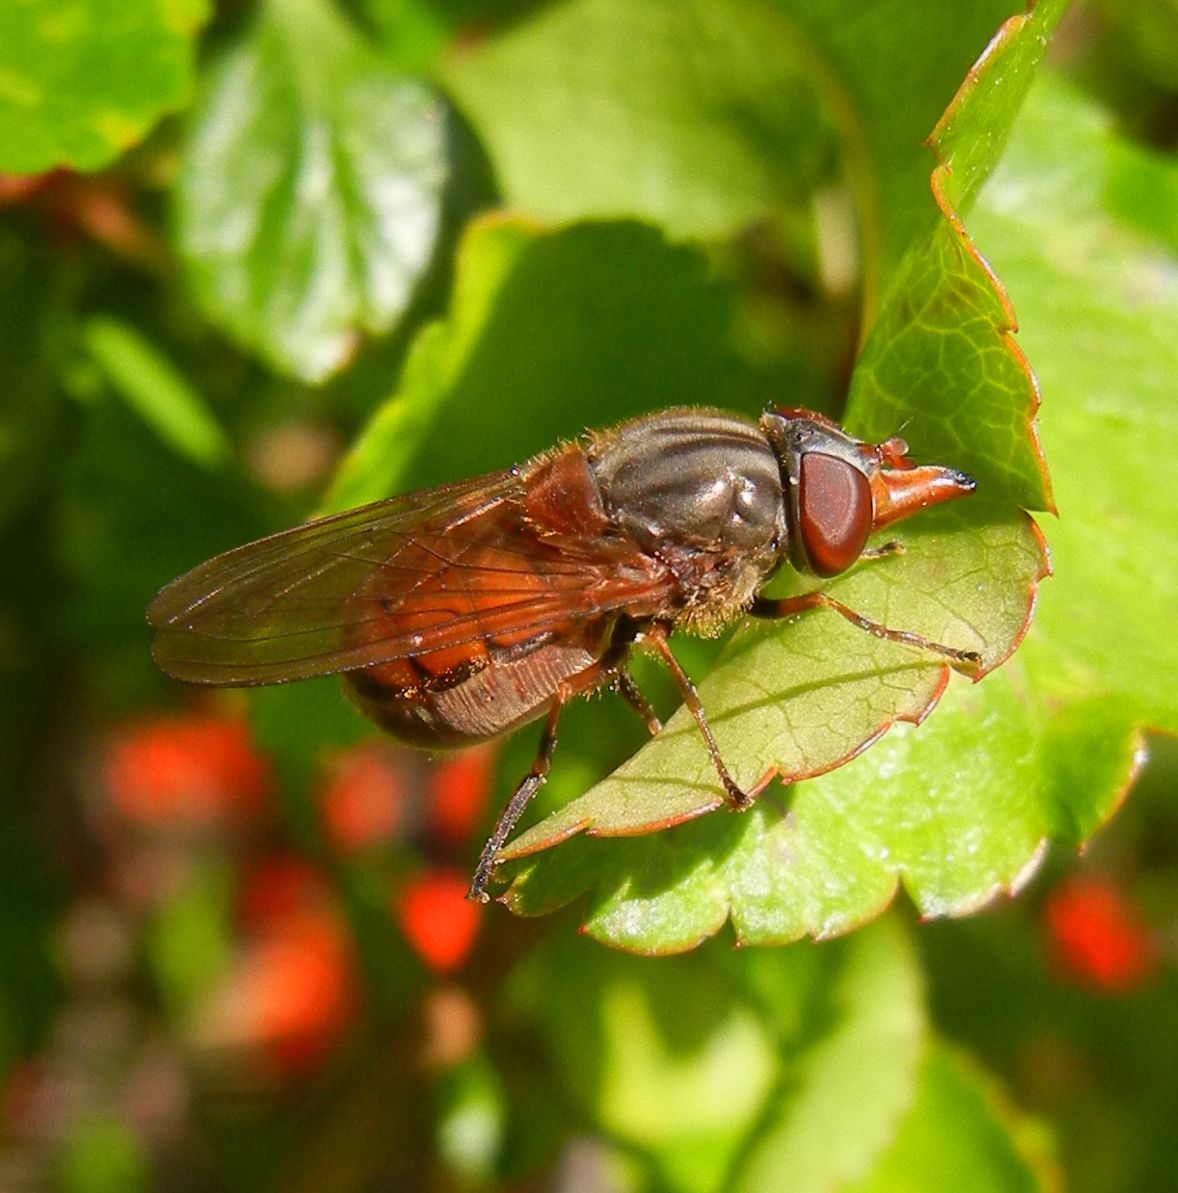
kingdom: Animalia
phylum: Arthropoda
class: Insecta
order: Diptera
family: Syrphidae
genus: Rhingia
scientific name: Rhingia campestris
